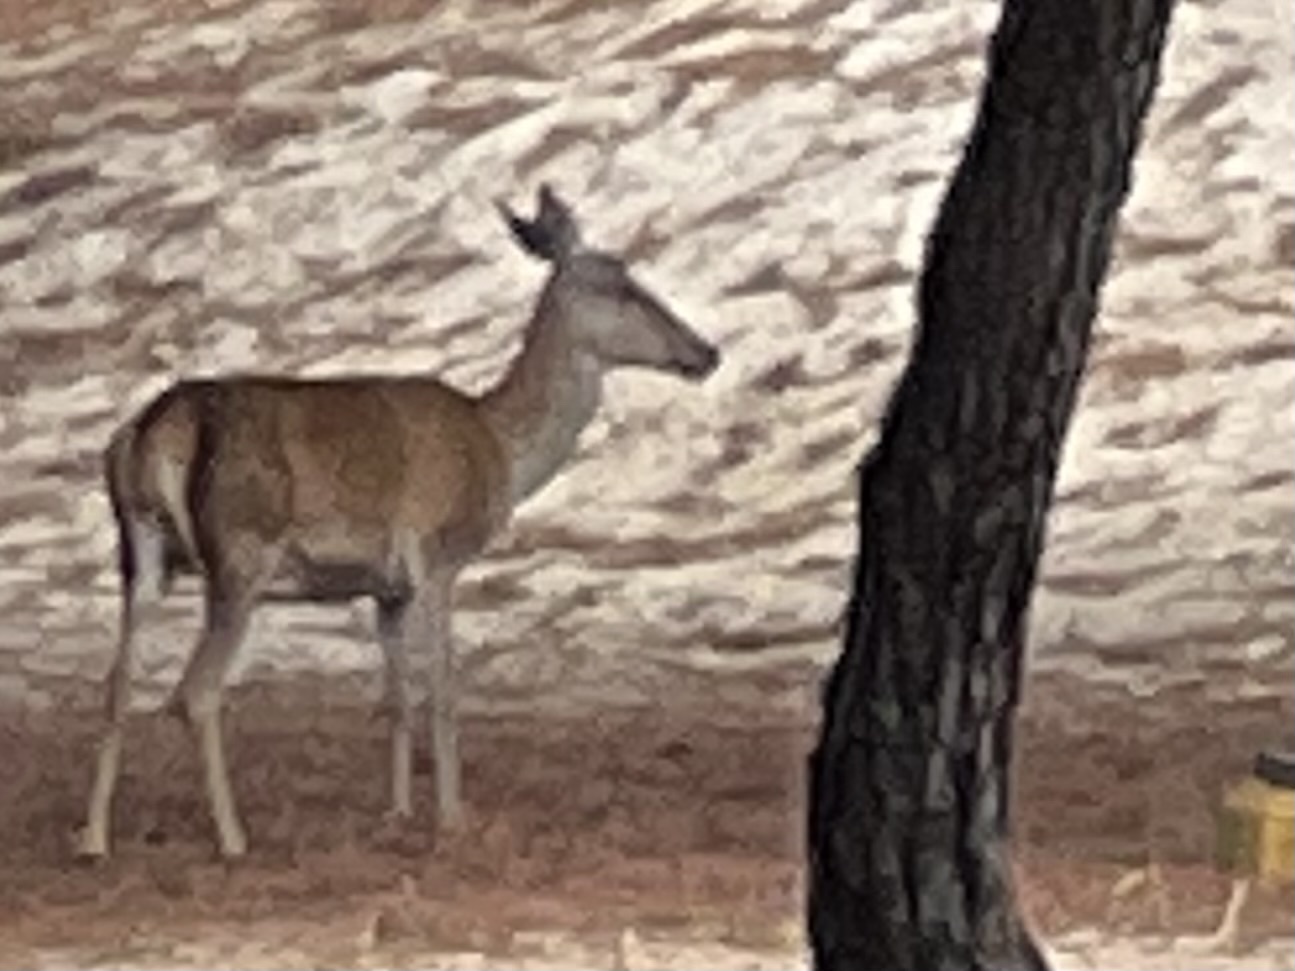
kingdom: Animalia
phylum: Chordata
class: Mammalia
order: Artiodactyla
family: Cervidae
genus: Cervus
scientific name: Cervus elaphus
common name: Red deer
